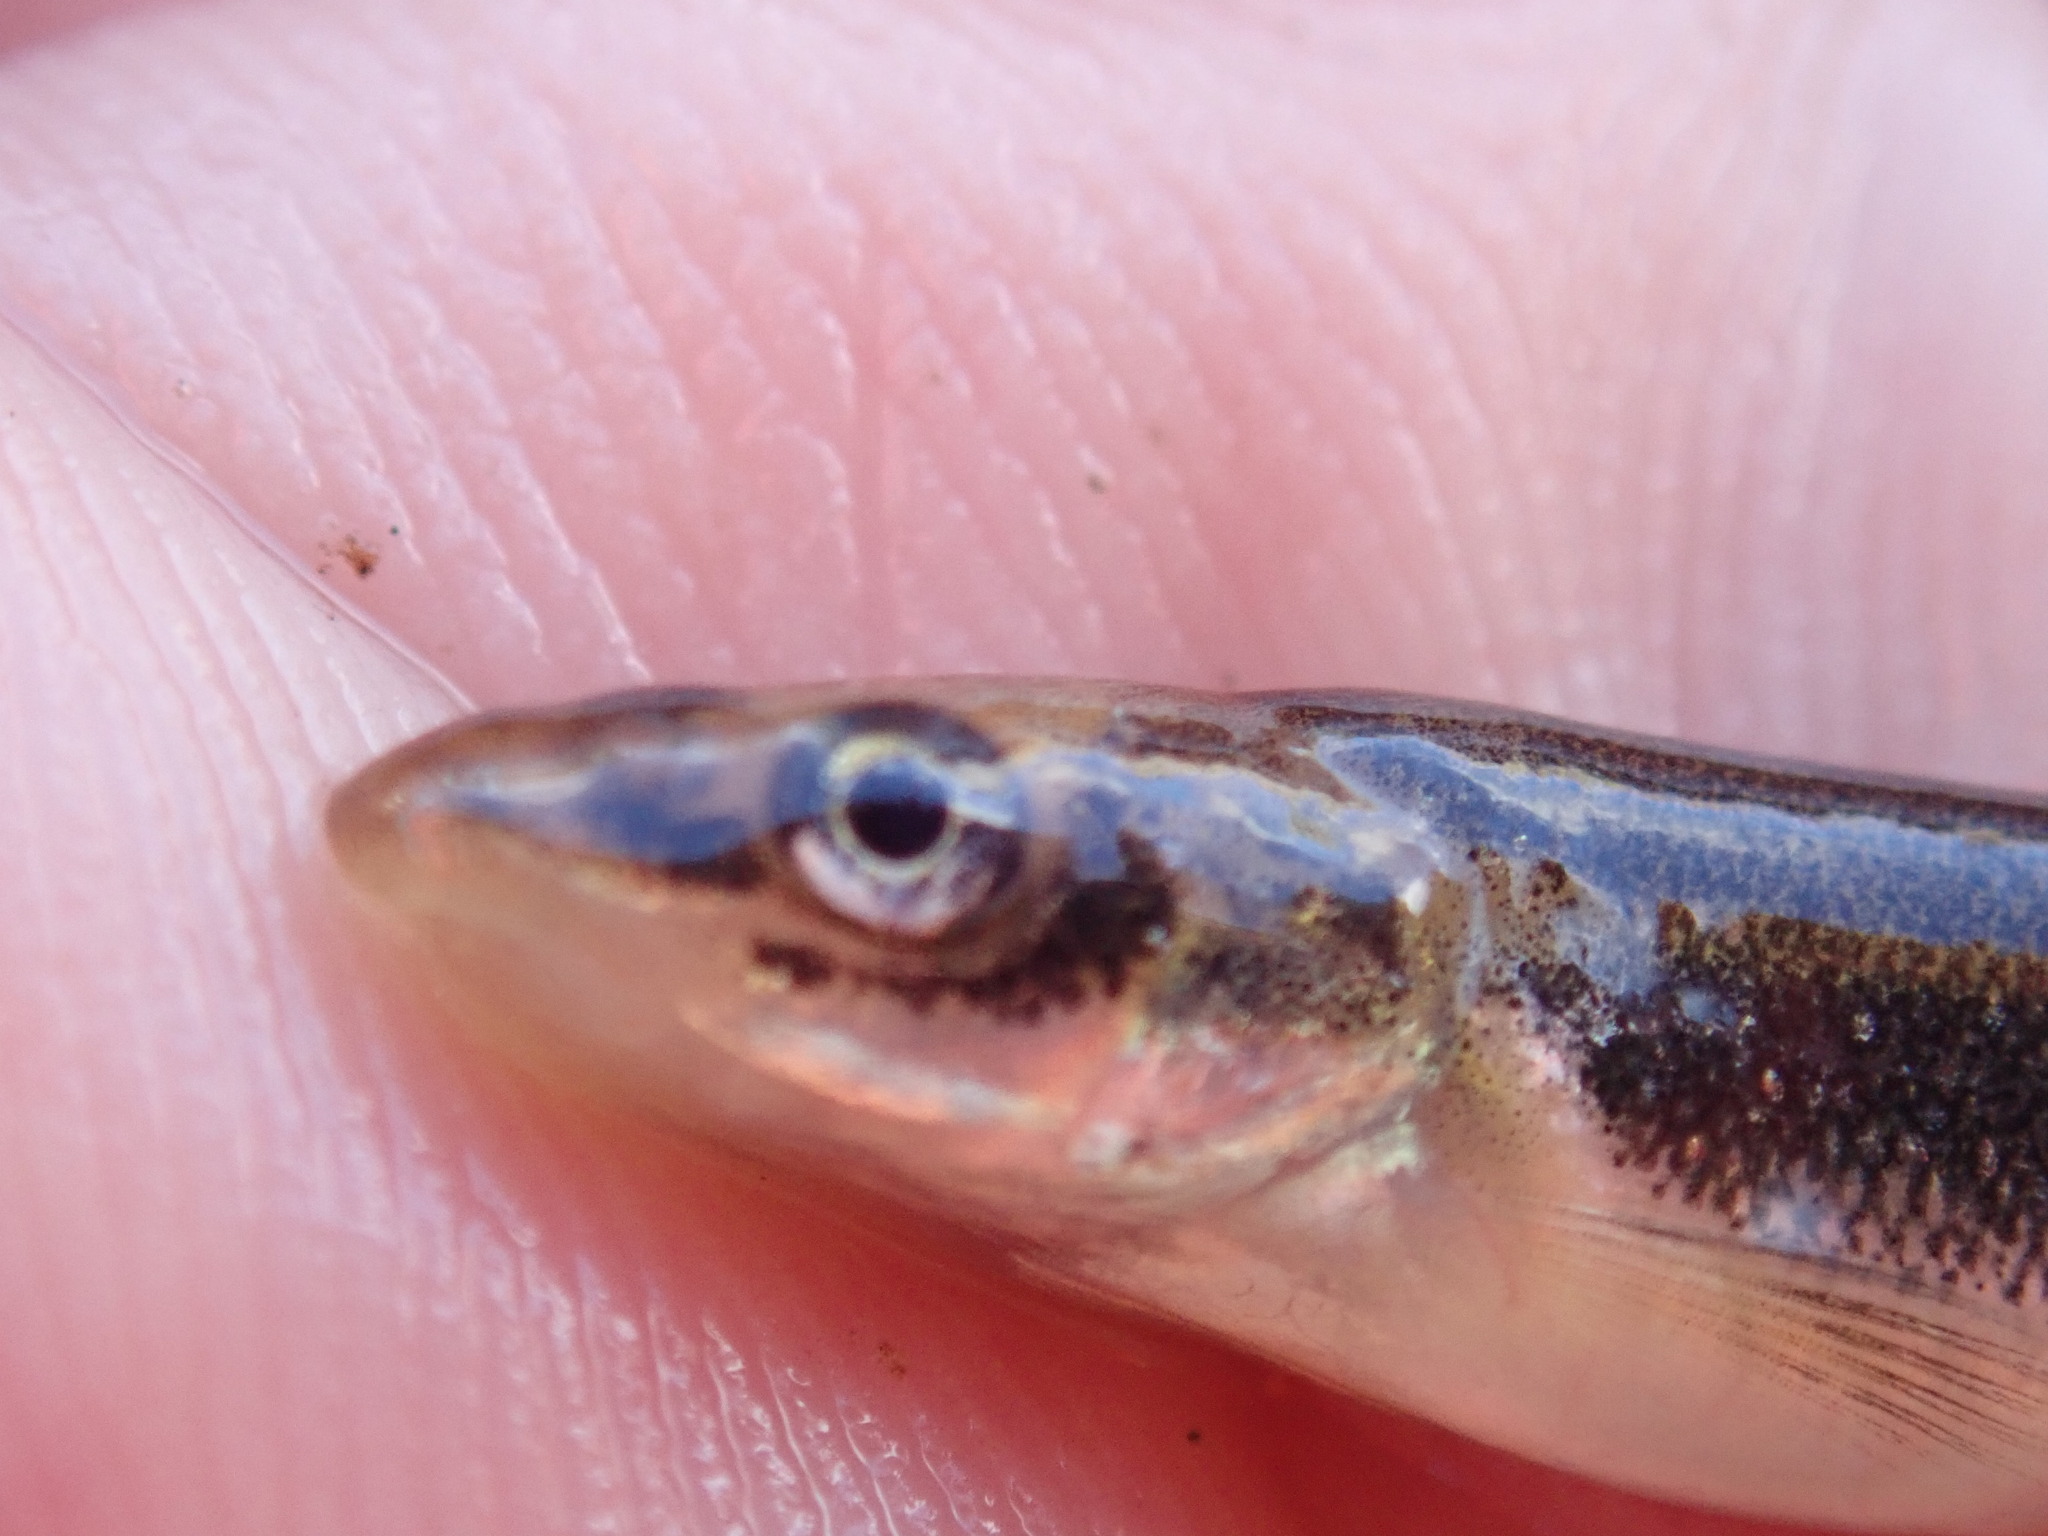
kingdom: Animalia
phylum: Chordata
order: Cypriniformes
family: Cyprinidae
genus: Rhinichthys
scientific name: Rhinichthys cataractae
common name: Longnose dace
